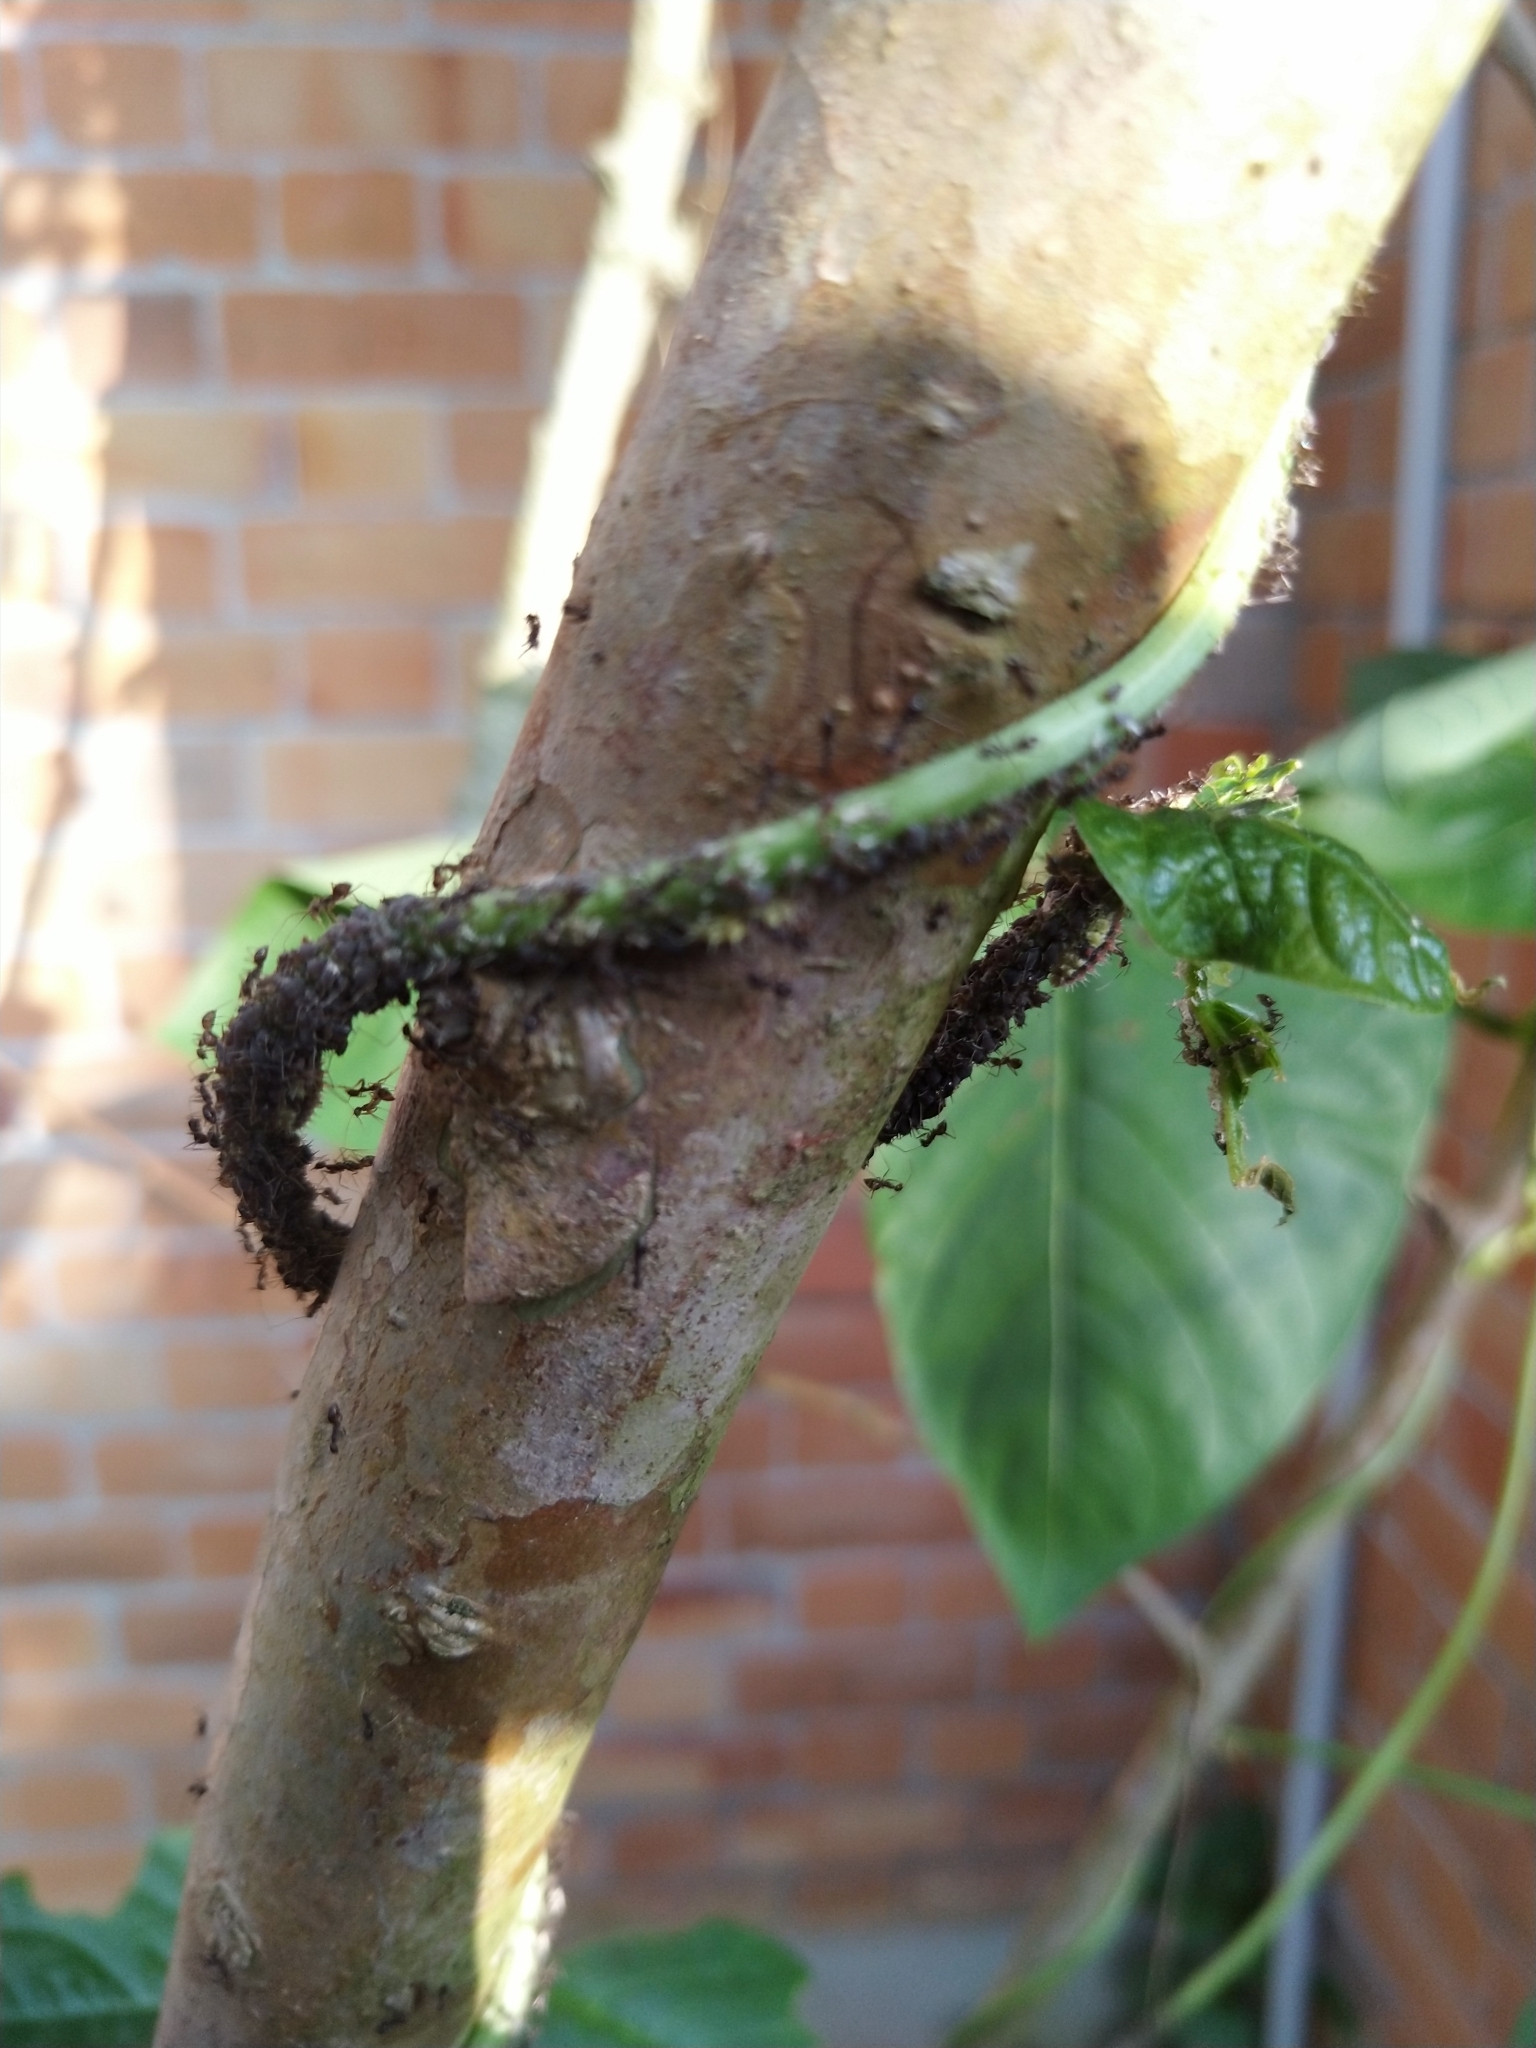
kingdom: Animalia
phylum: Arthropoda
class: Insecta
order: Hymenoptera
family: Formicidae
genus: Paratrechina
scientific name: Paratrechina longicornis
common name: Longhorned crazy ant
